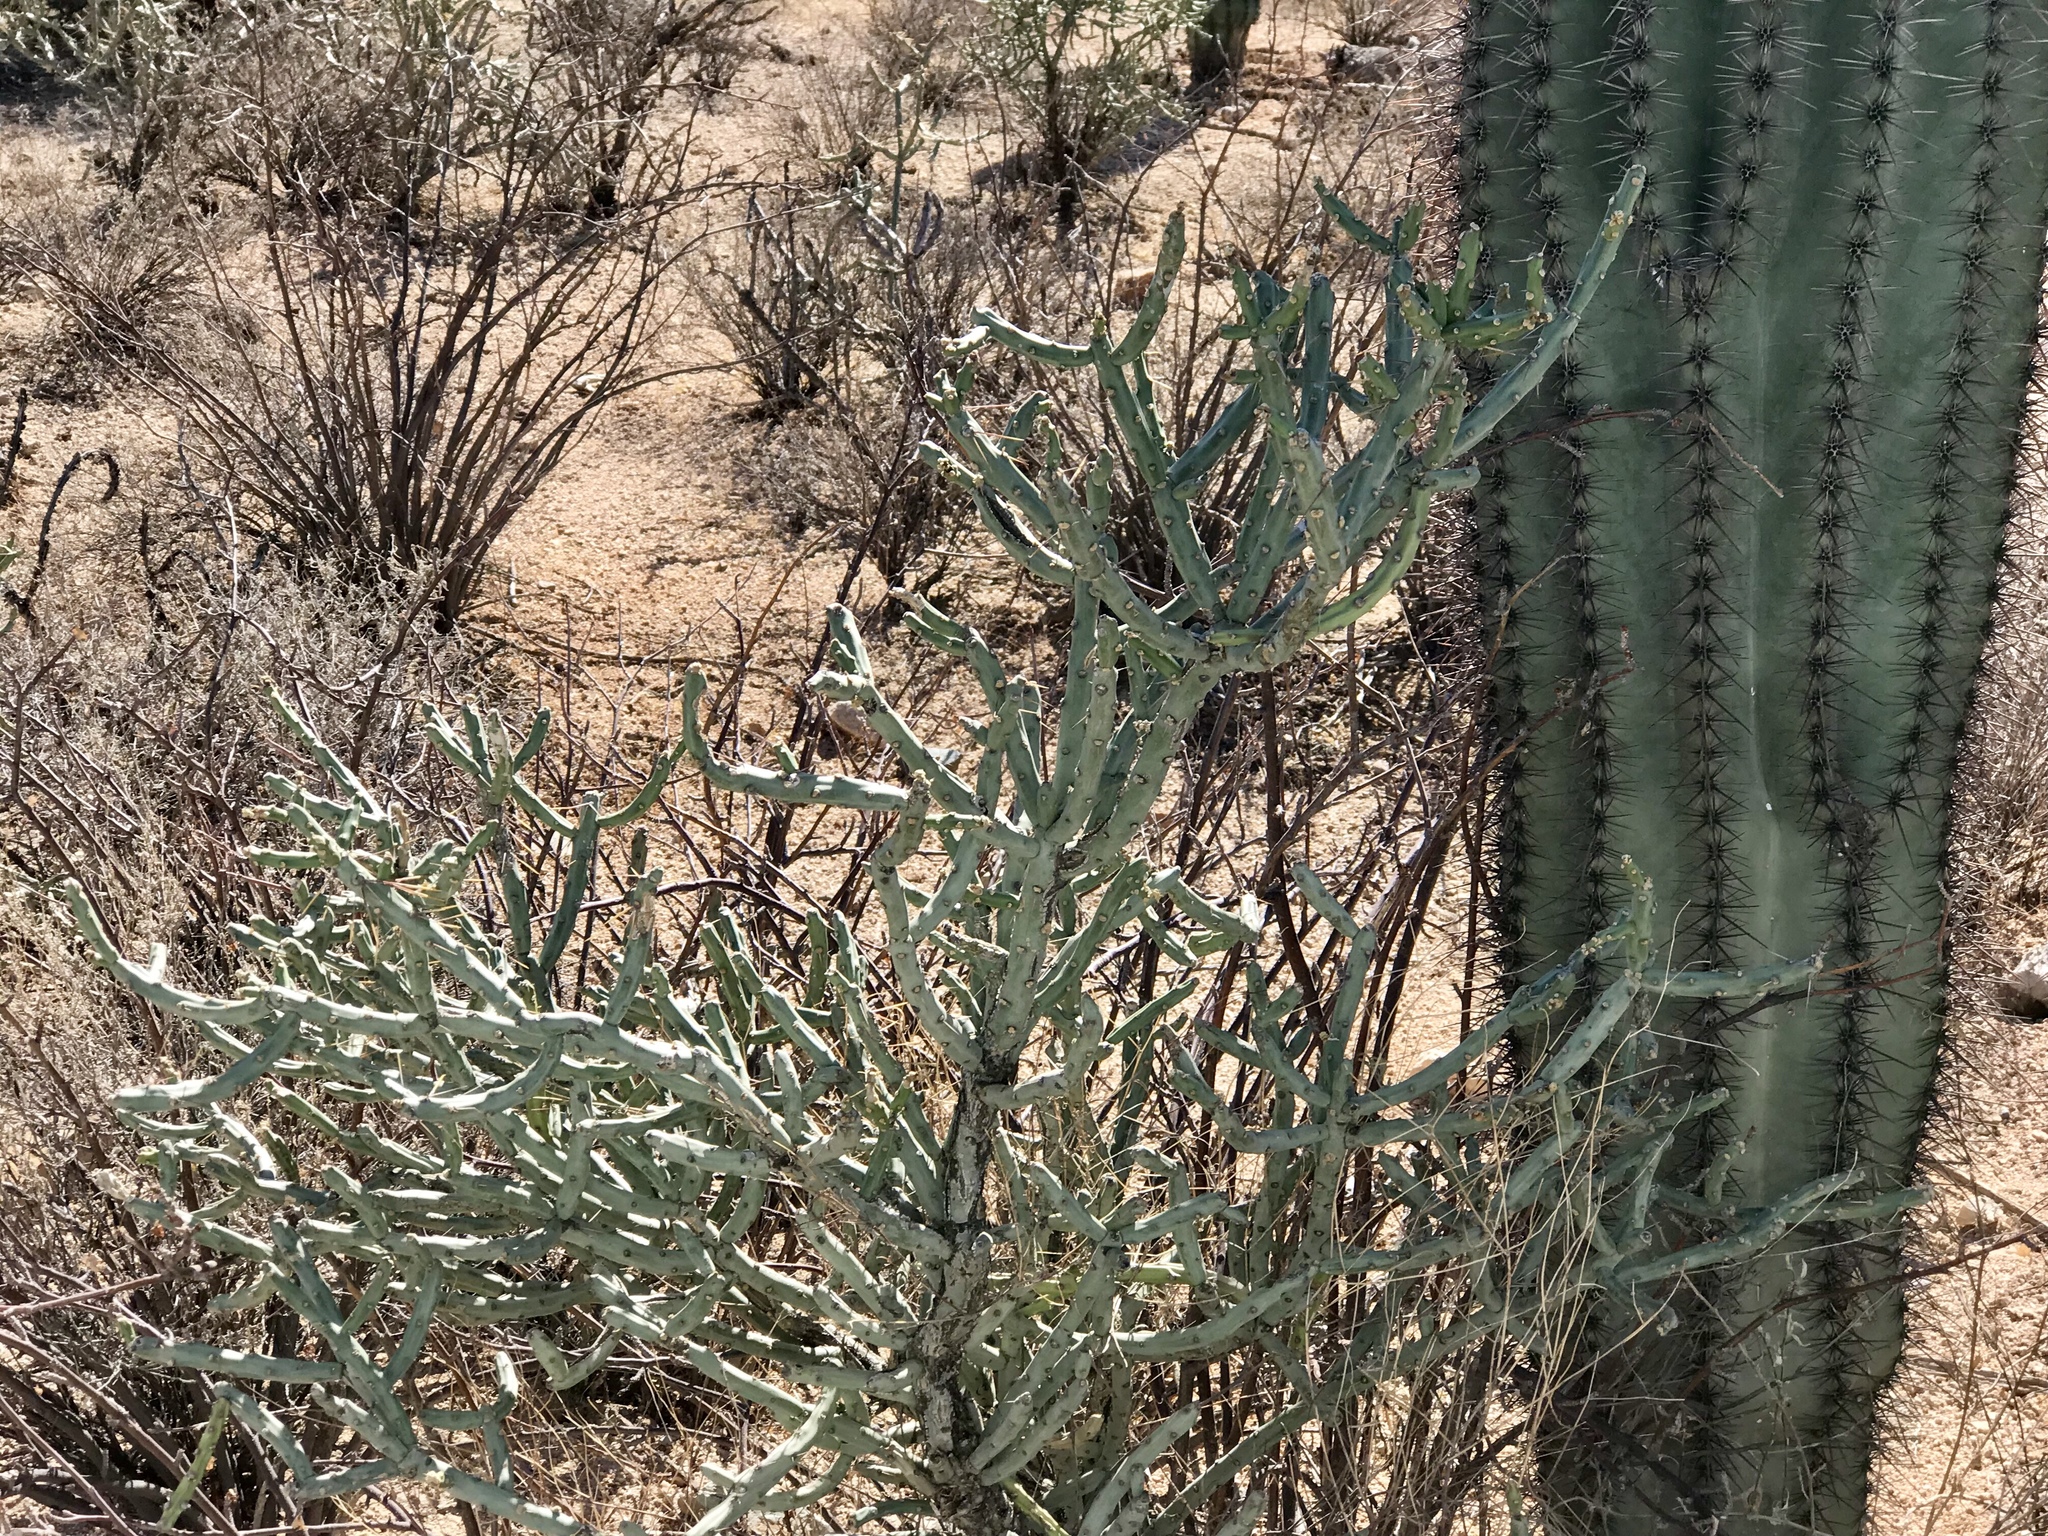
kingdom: Plantae
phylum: Tracheophyta
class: Magnoliopsida
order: Caryophyllales
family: Cactaceae
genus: Cylindropuntia
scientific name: Cylindropuntia arbuscula
